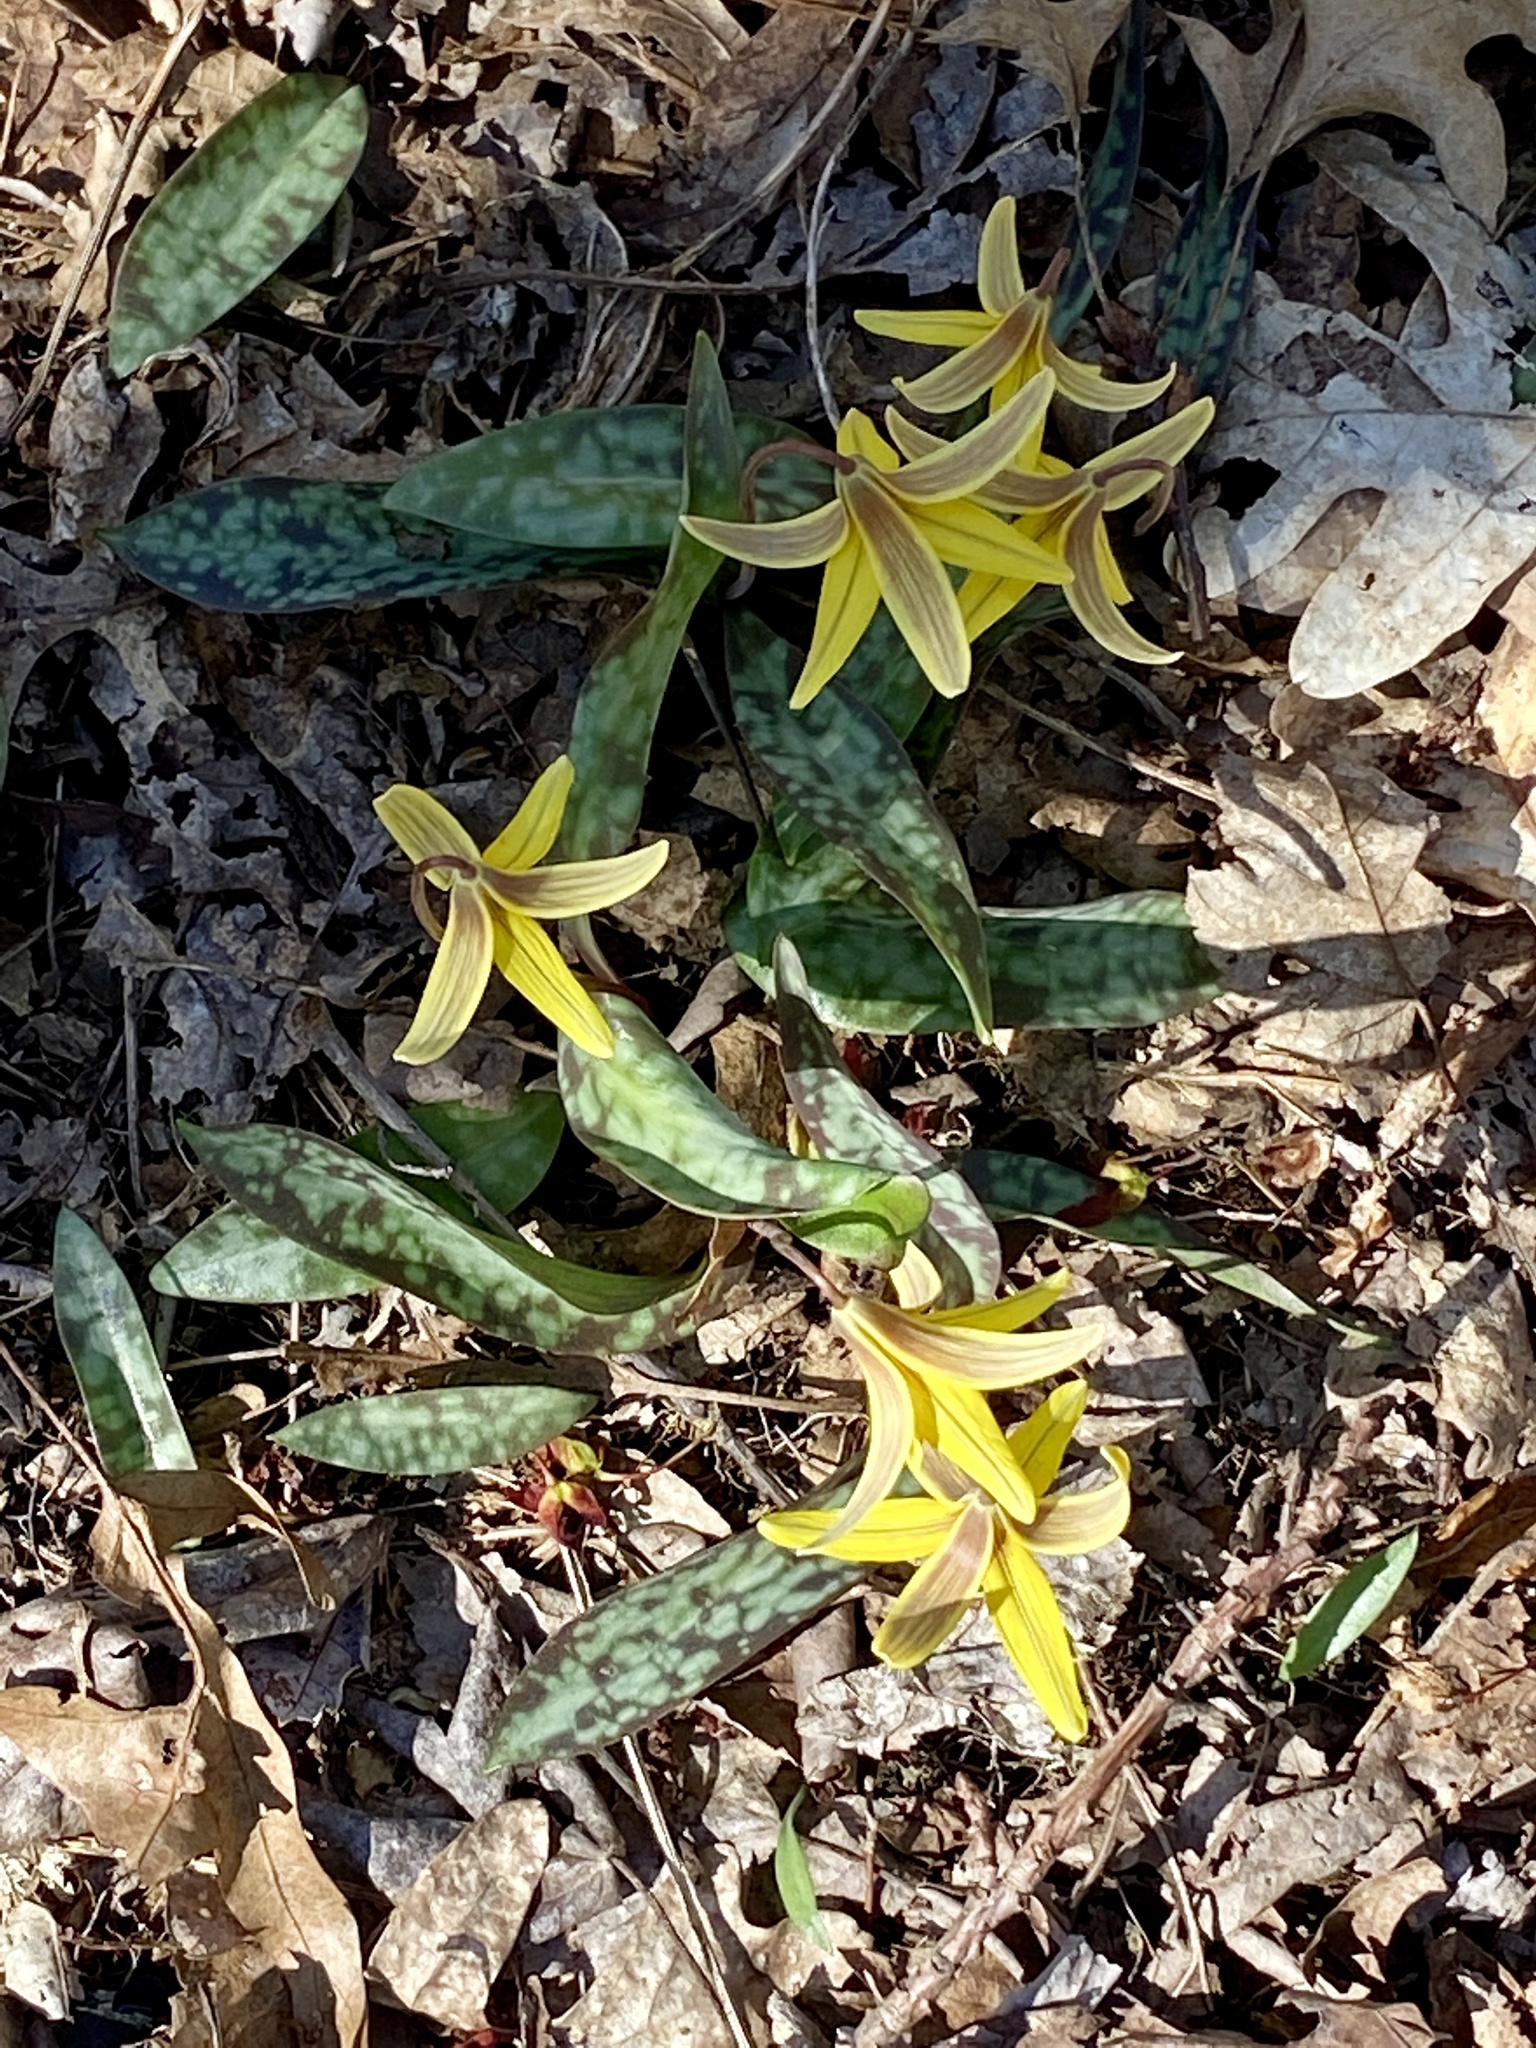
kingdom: Plantae
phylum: Tracheophyta
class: Liliopsida
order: Liliales
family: Liliaceae
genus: Erythronium
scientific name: Erythronium americanum
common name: Yellow adder's-tongue
